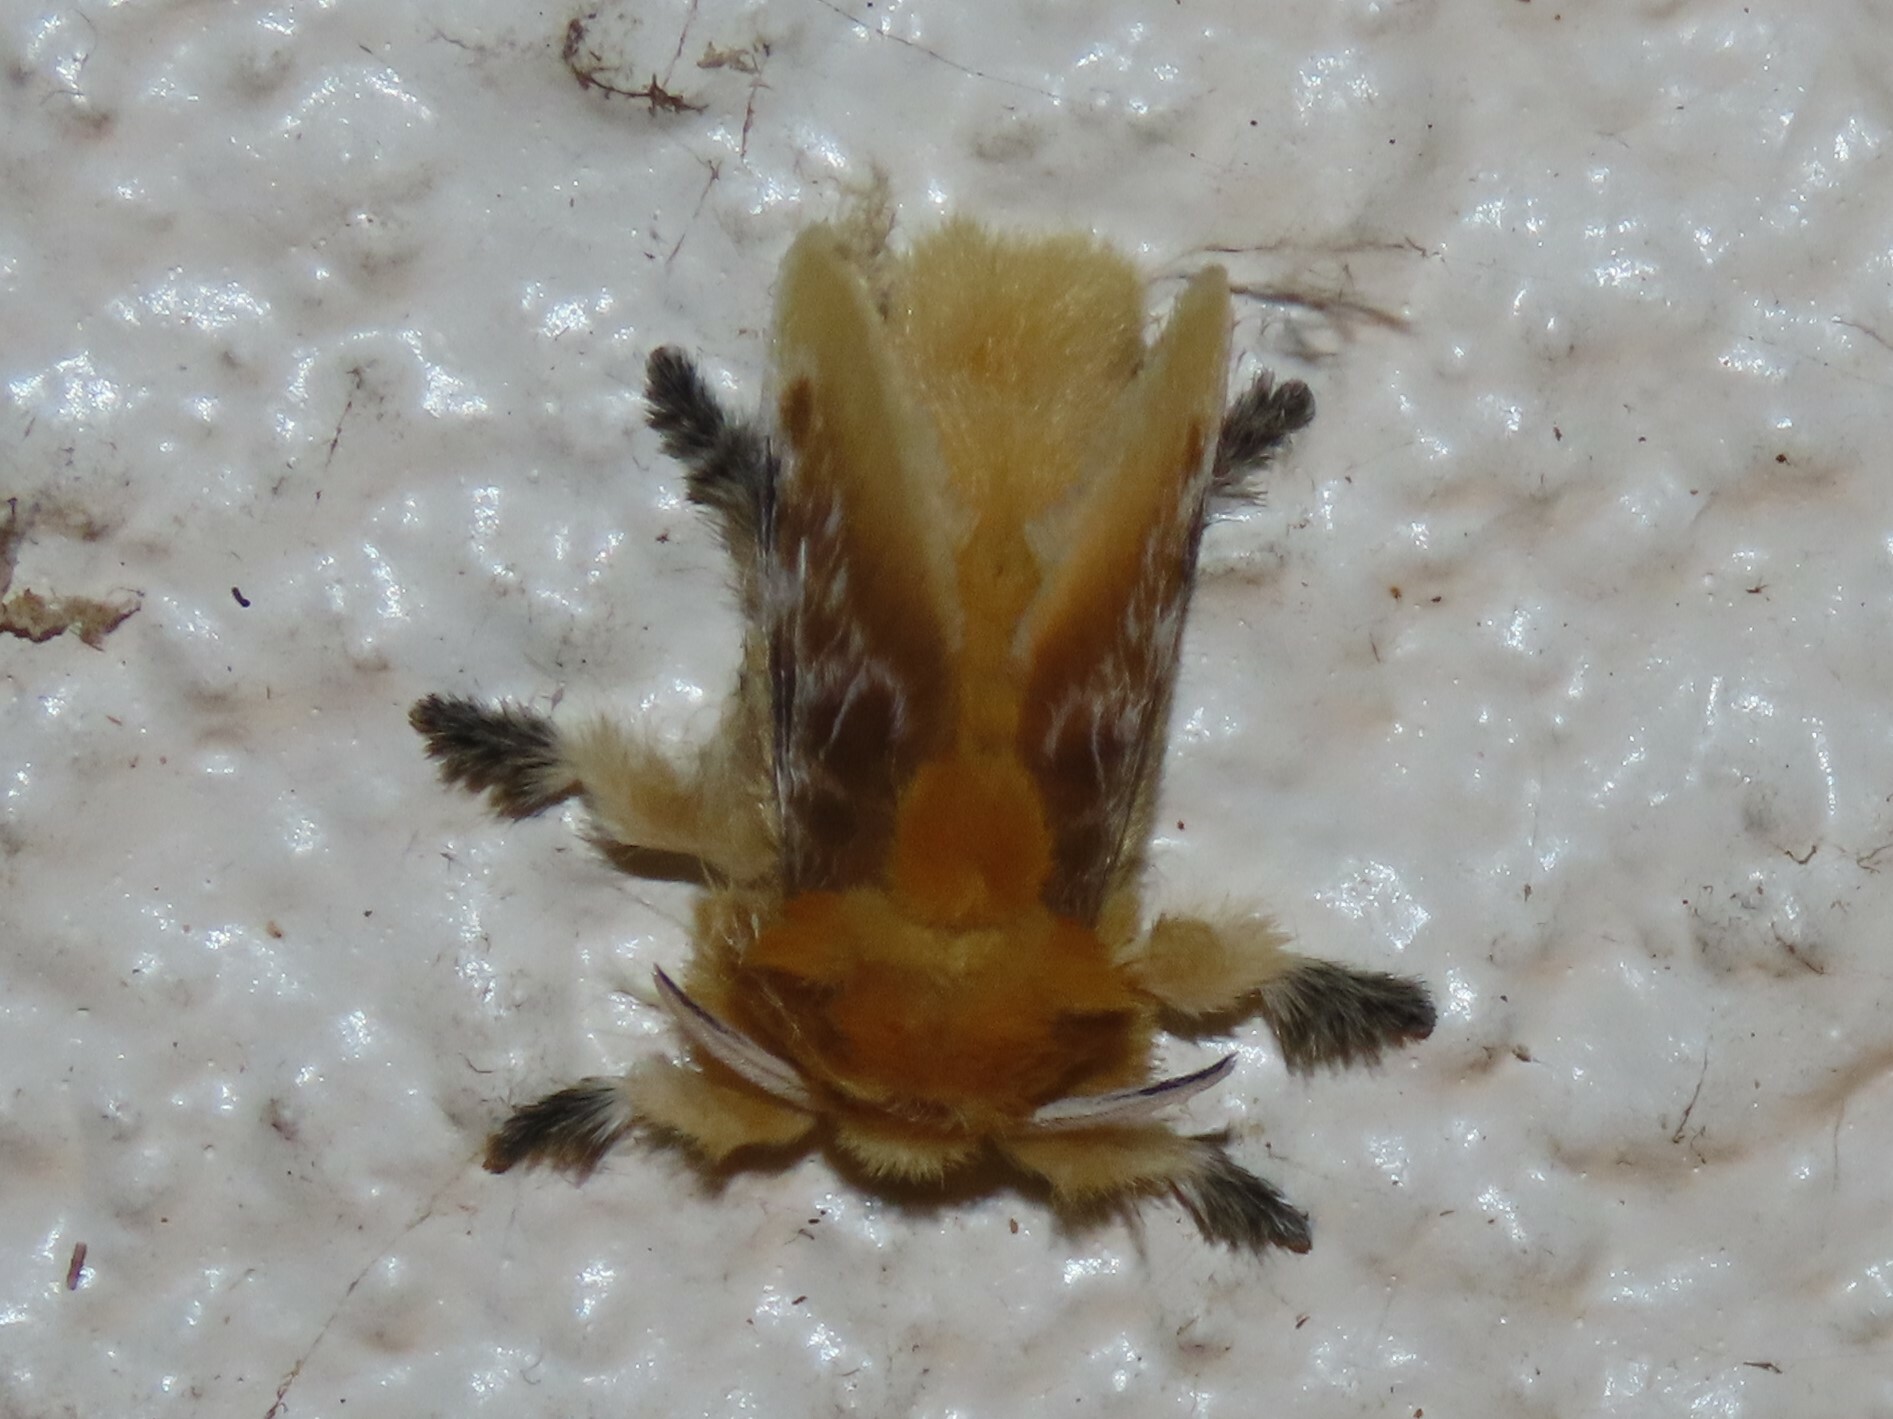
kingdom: Animalia
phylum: Arthropoda
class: Insecta
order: Lepidoptera
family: Megalopygidae
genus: Megalopyge
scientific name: Megalopyge opercularis
